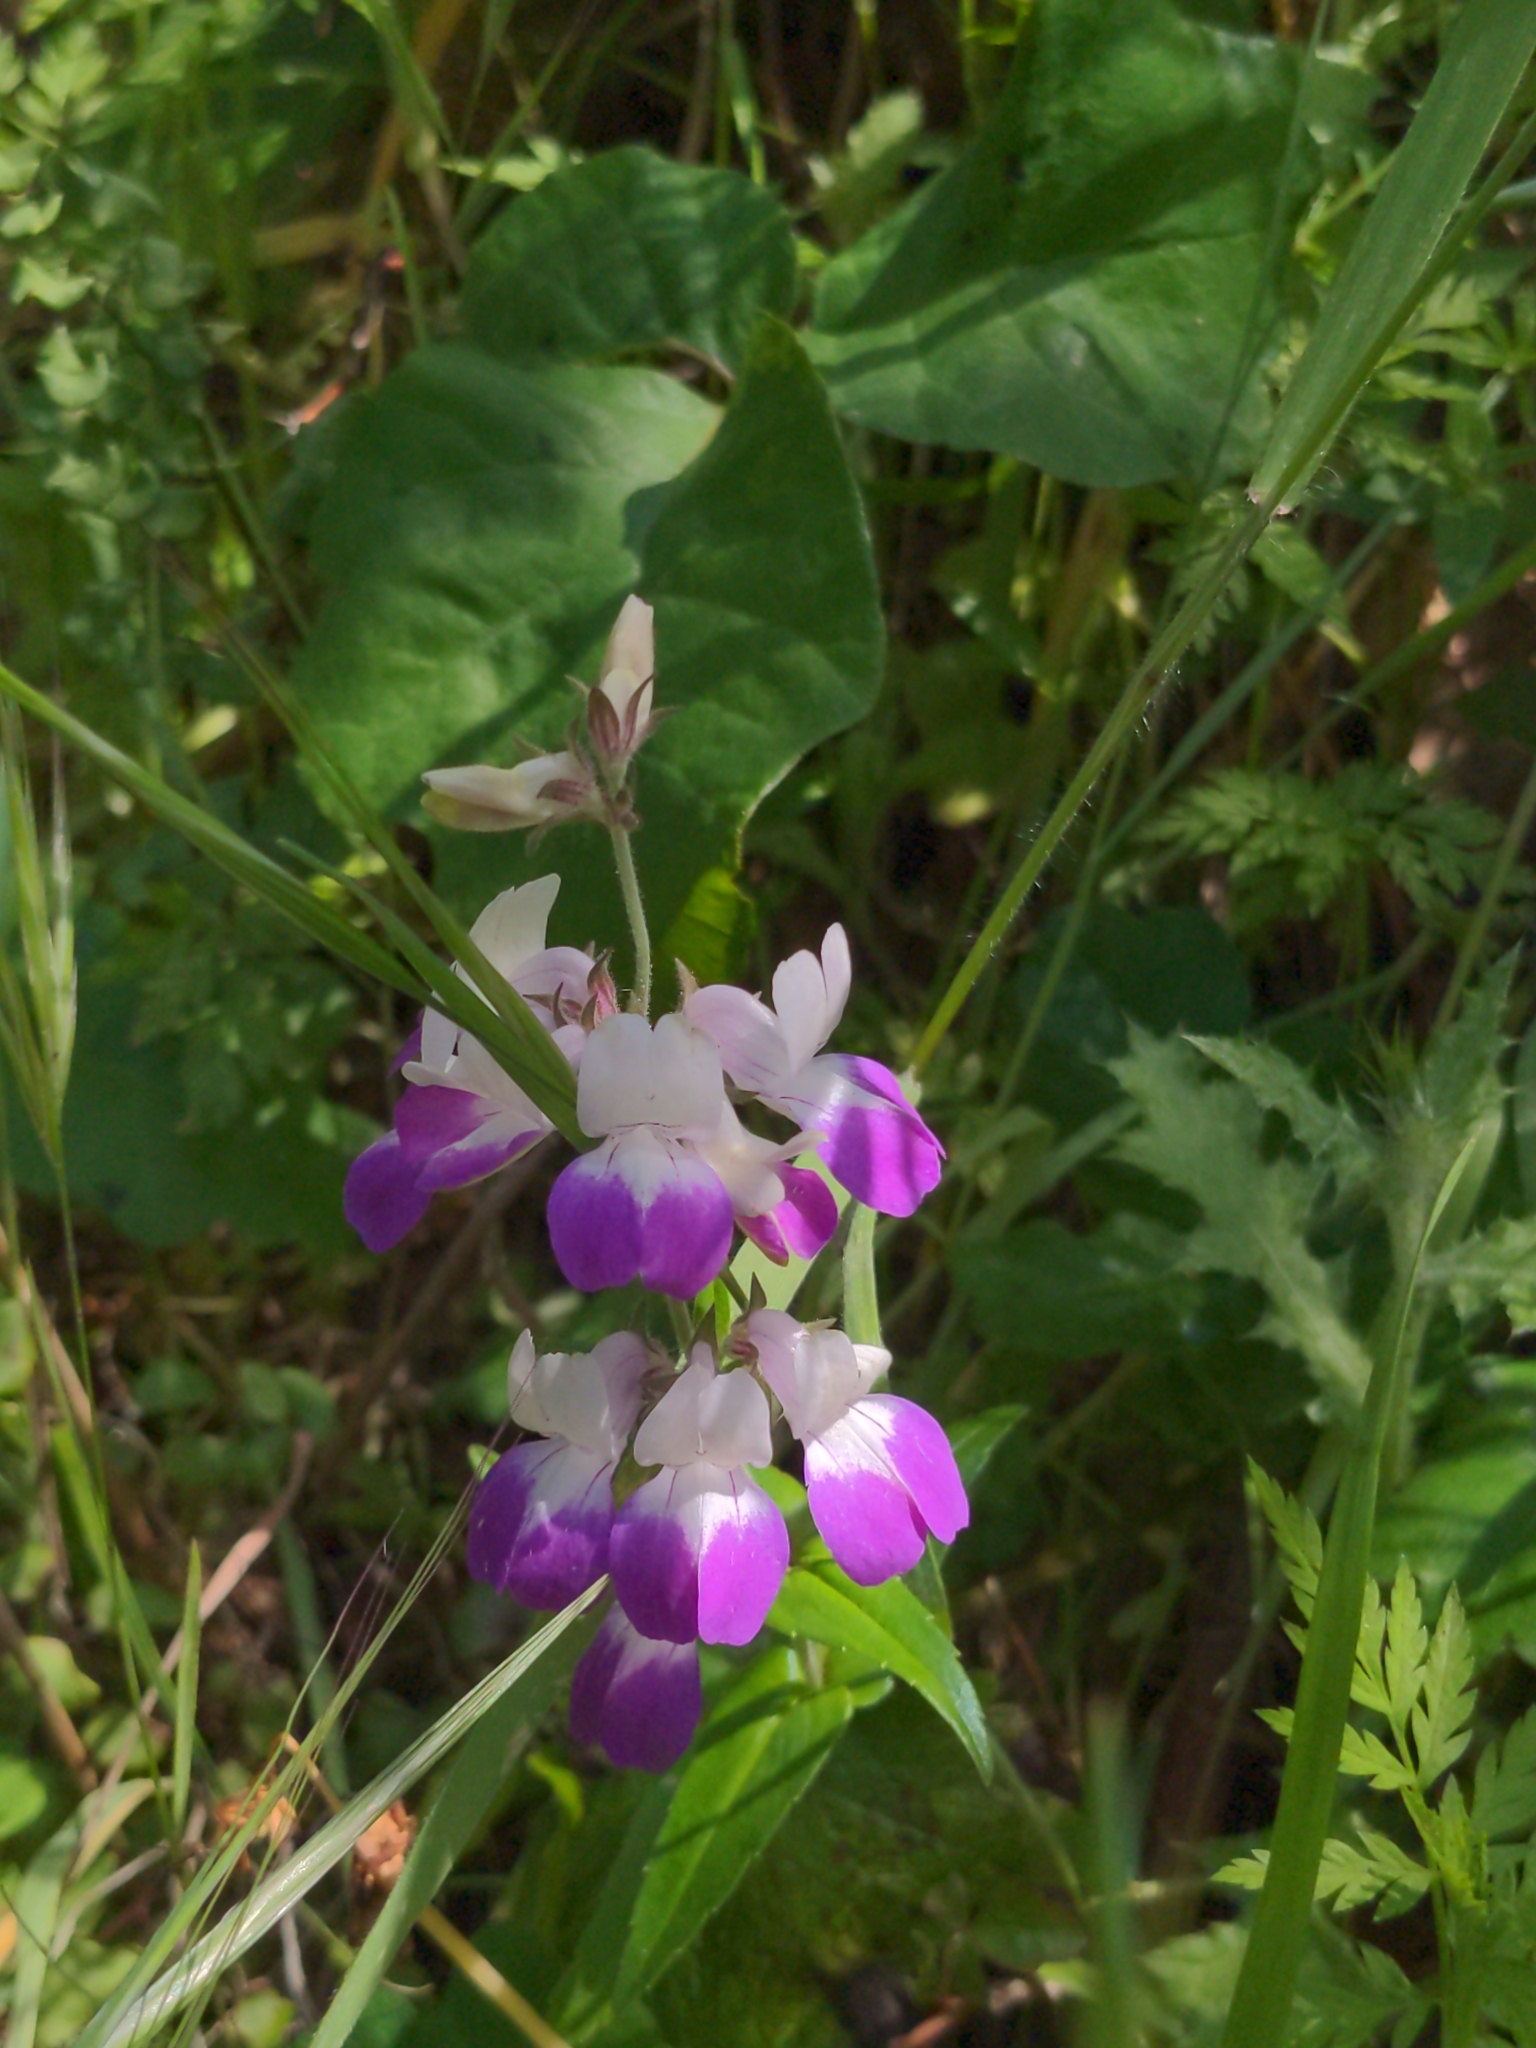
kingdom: Plantae
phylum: Tracheophyta
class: Magnoliopsida
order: Lamiales
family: Plantaginaceae
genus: Collinsia
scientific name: Collinsia heterophylla
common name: Chinese-houses
